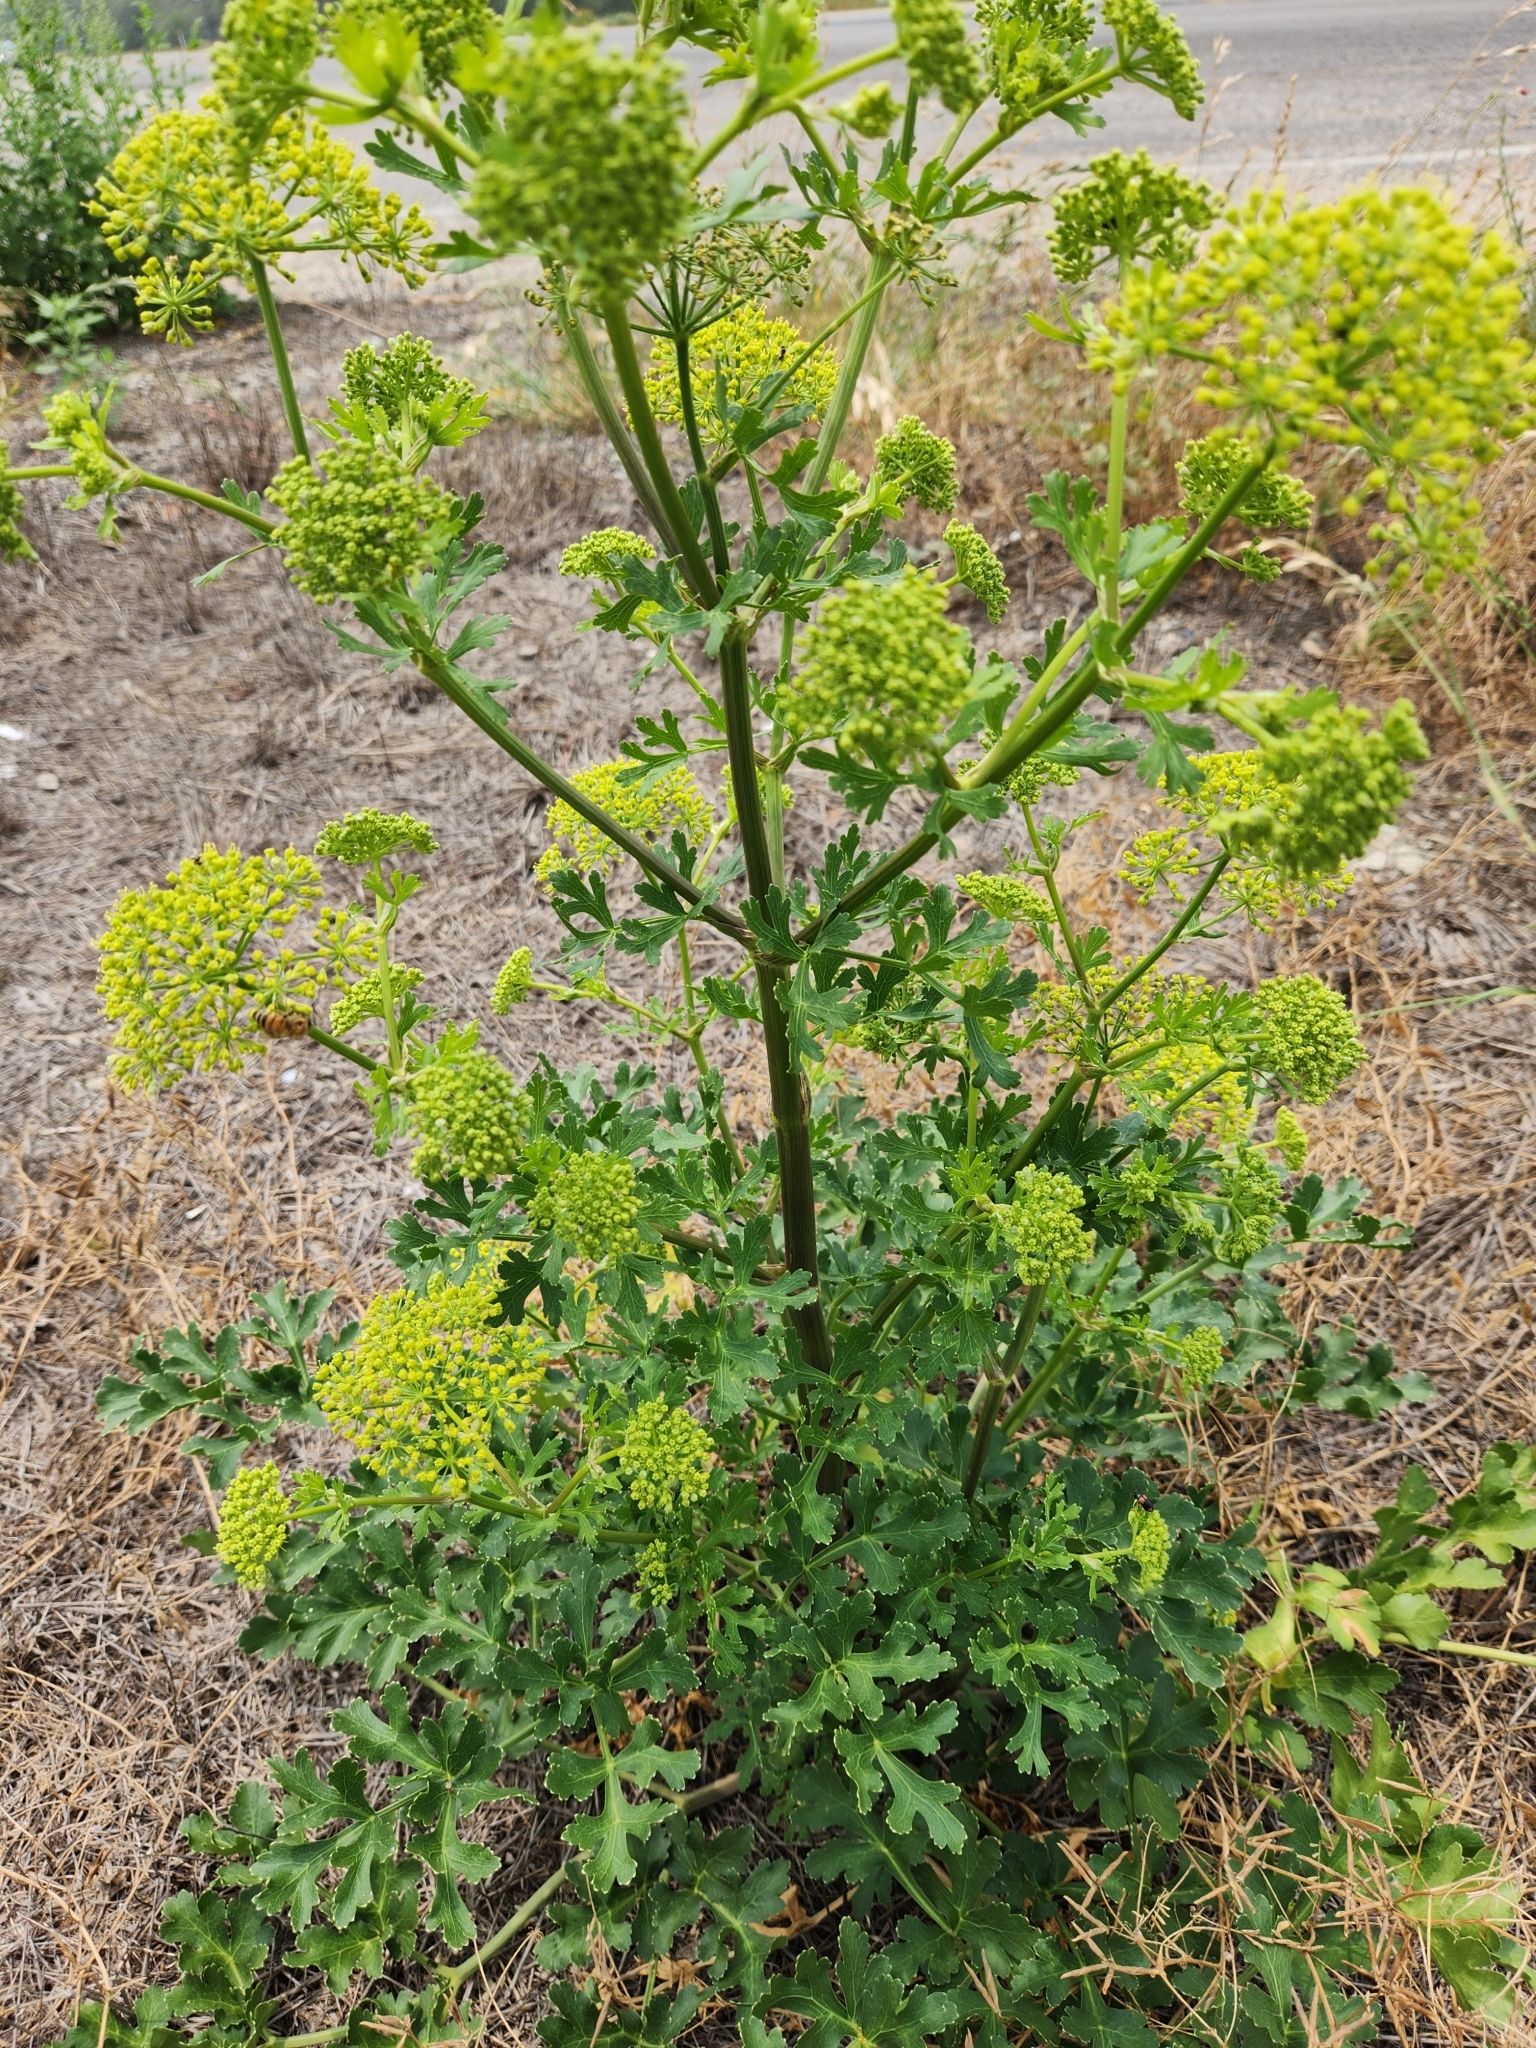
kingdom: Plantae
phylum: Tracheophyta
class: Magnoliopsida
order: Apiales
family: Apiaceae
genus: Polytaenia
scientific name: Polytaenia texana
